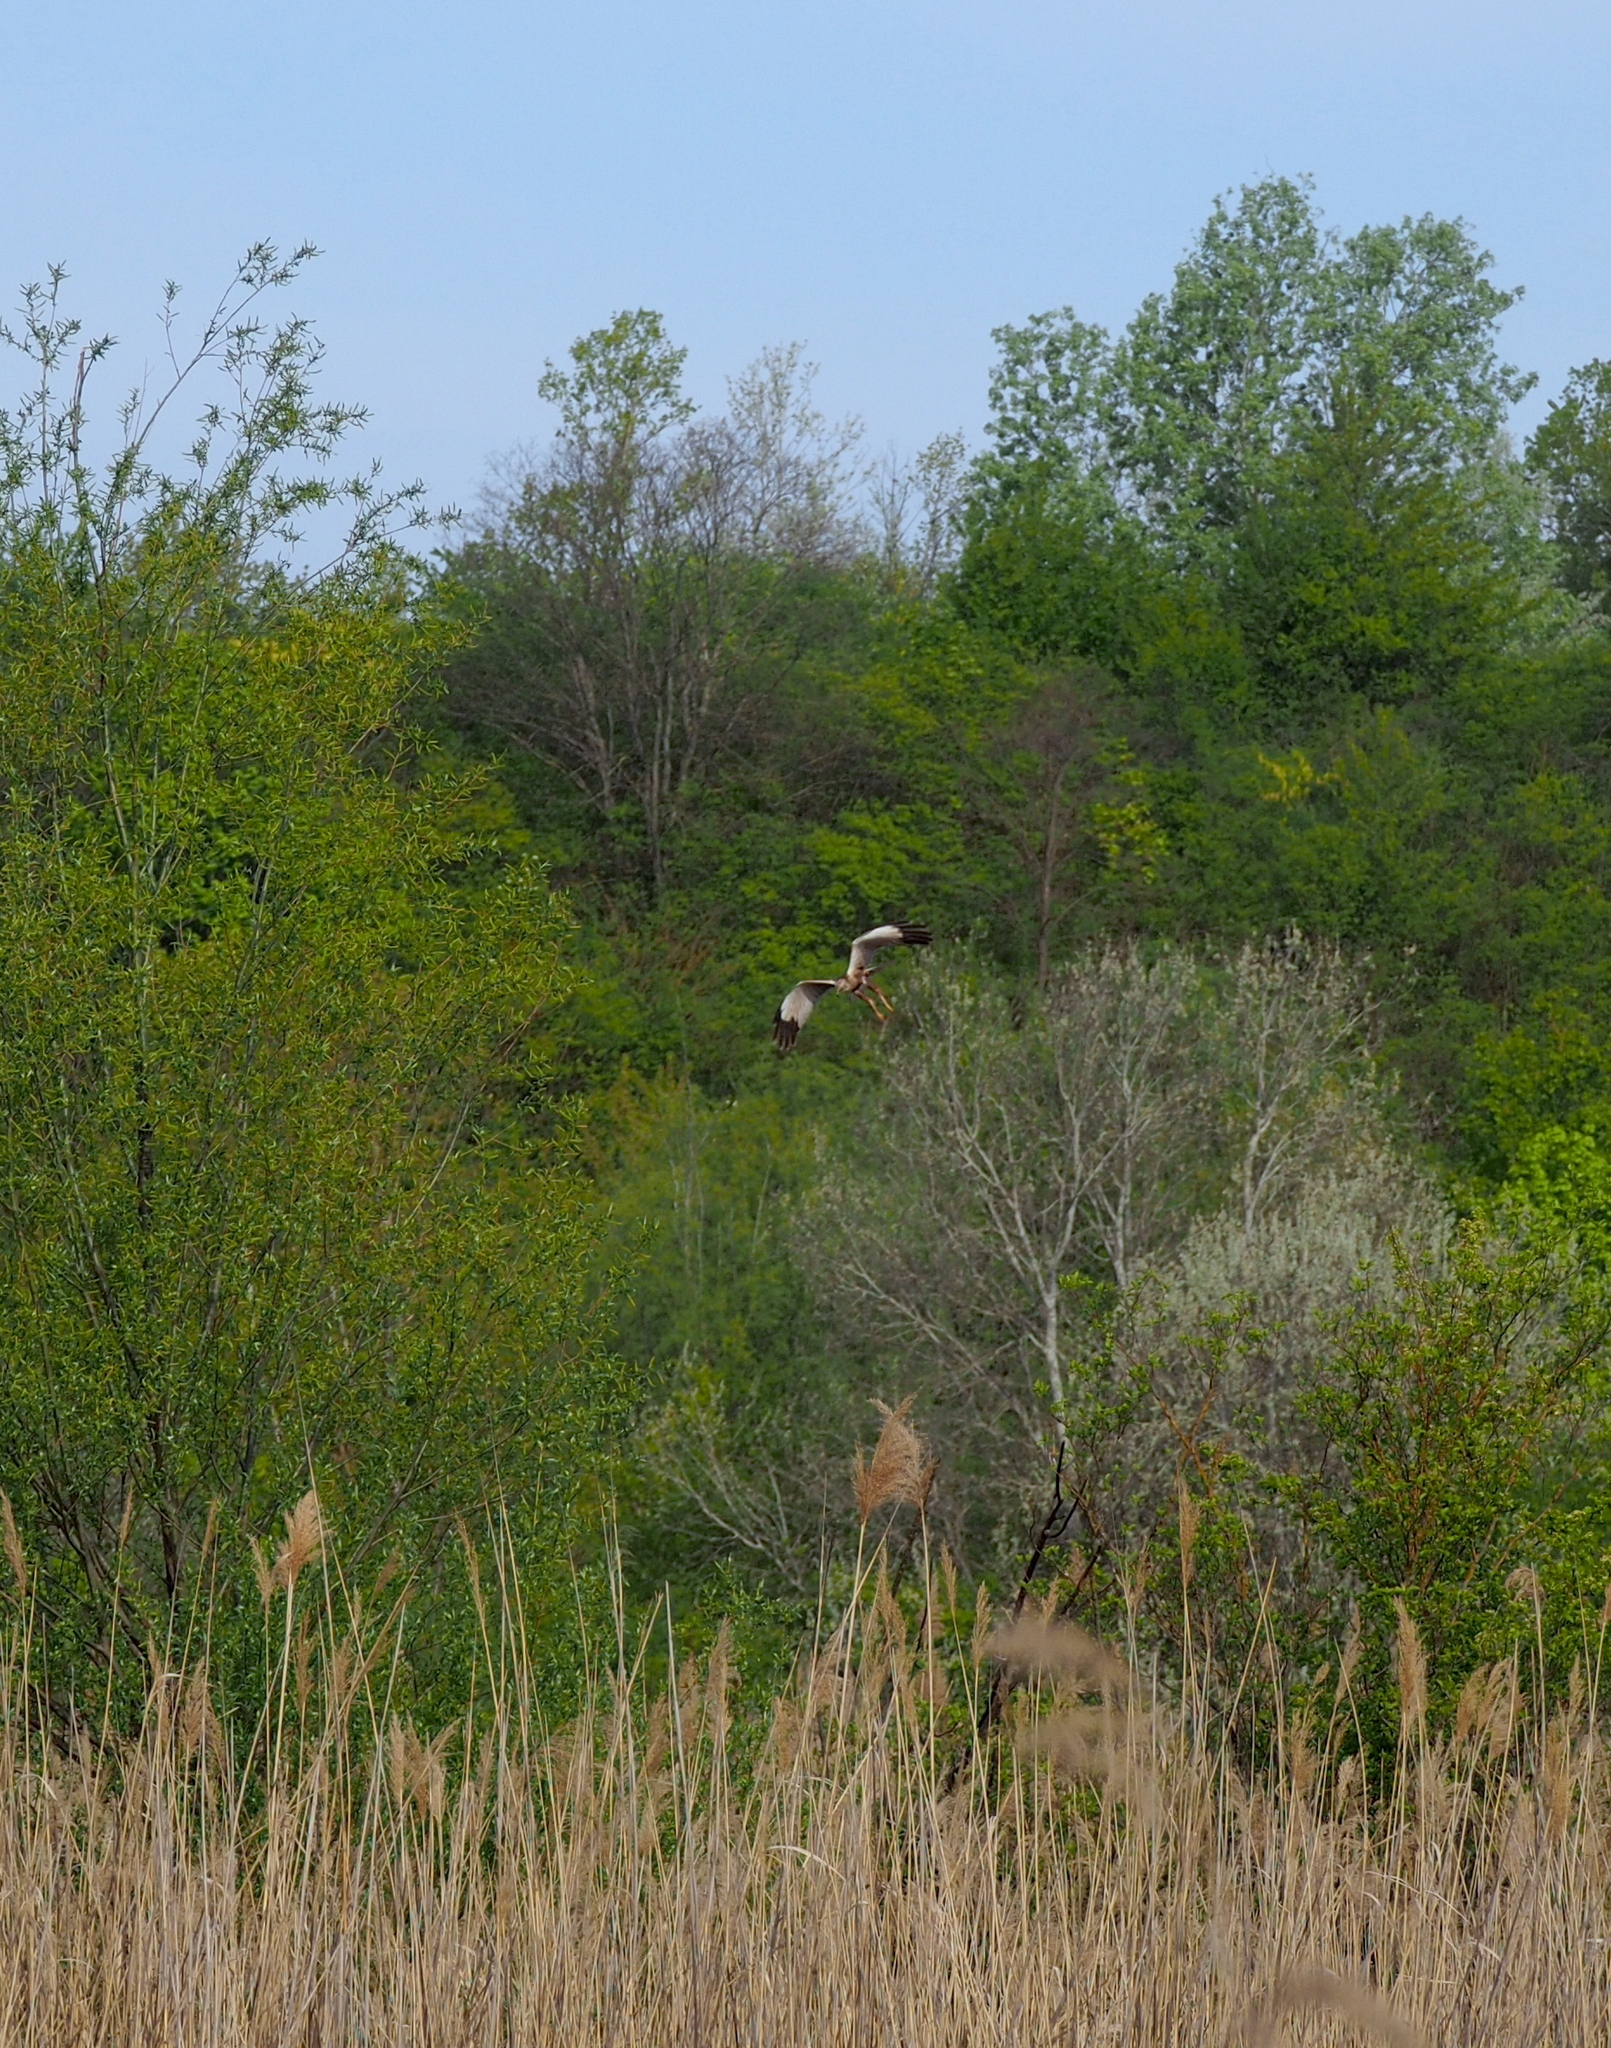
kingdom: Animalia
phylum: Chordata
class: Aves
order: Accipitriformes
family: Accipitridae
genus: Circus
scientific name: Circus aeruginosus
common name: Western marsh harrier
